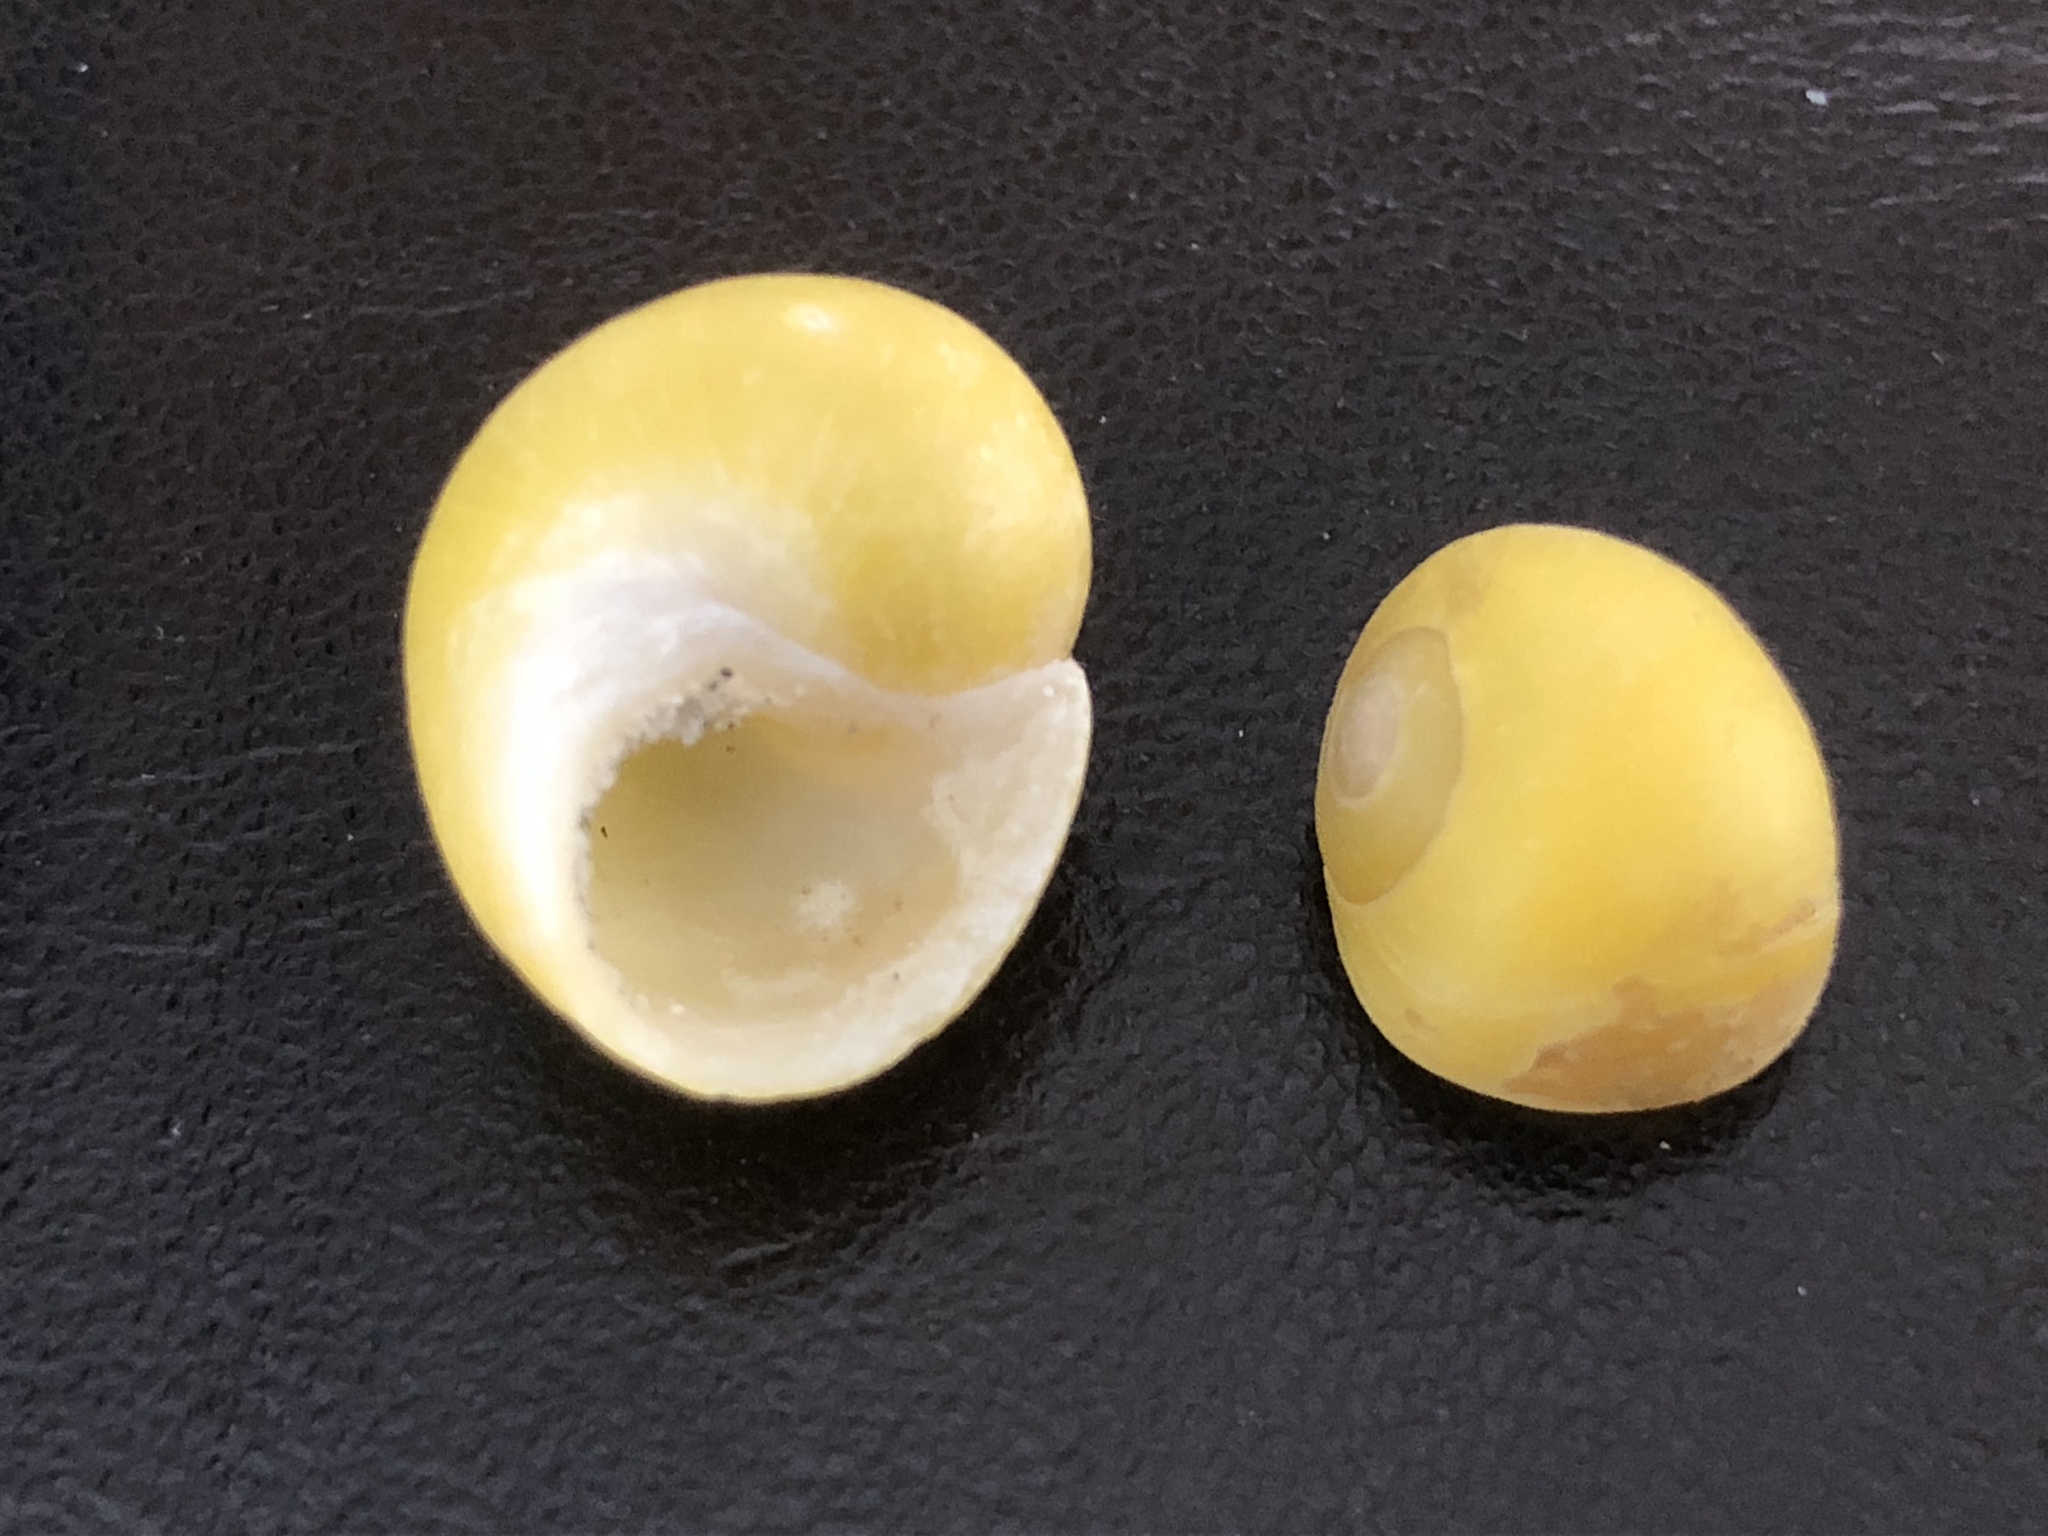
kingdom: Animalia
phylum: Mollusca
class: Gastropoda
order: Littorinimorpha
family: Littorinidae
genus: Littorina
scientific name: Littorina obtusata
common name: Flat periwinkle
